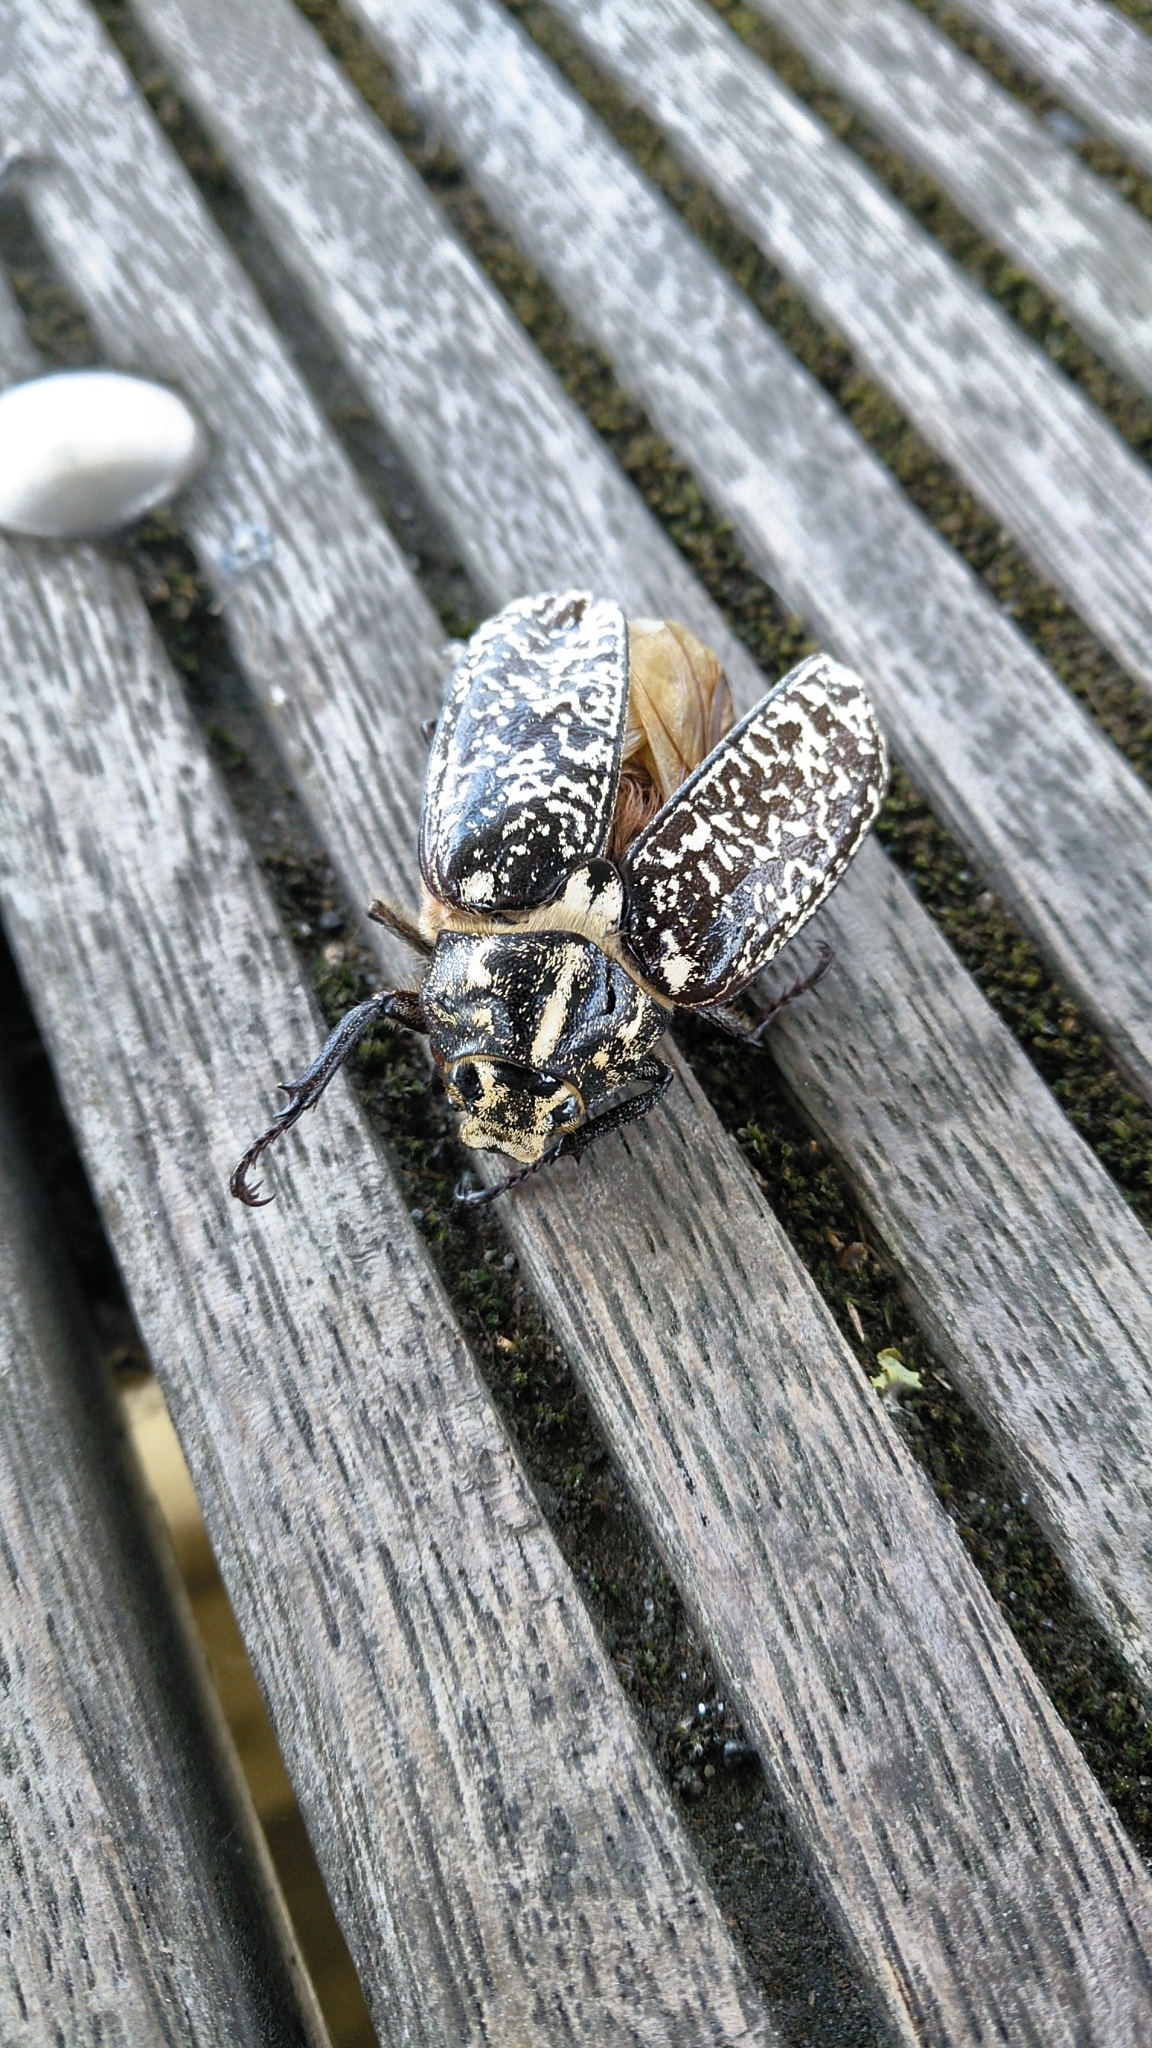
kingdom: Animalia
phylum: Arthropoda
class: Insecta
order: Coleoptera
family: Scarabaeidae
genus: Polyphylla
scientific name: Polyphylla fullo
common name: Pine chafer
